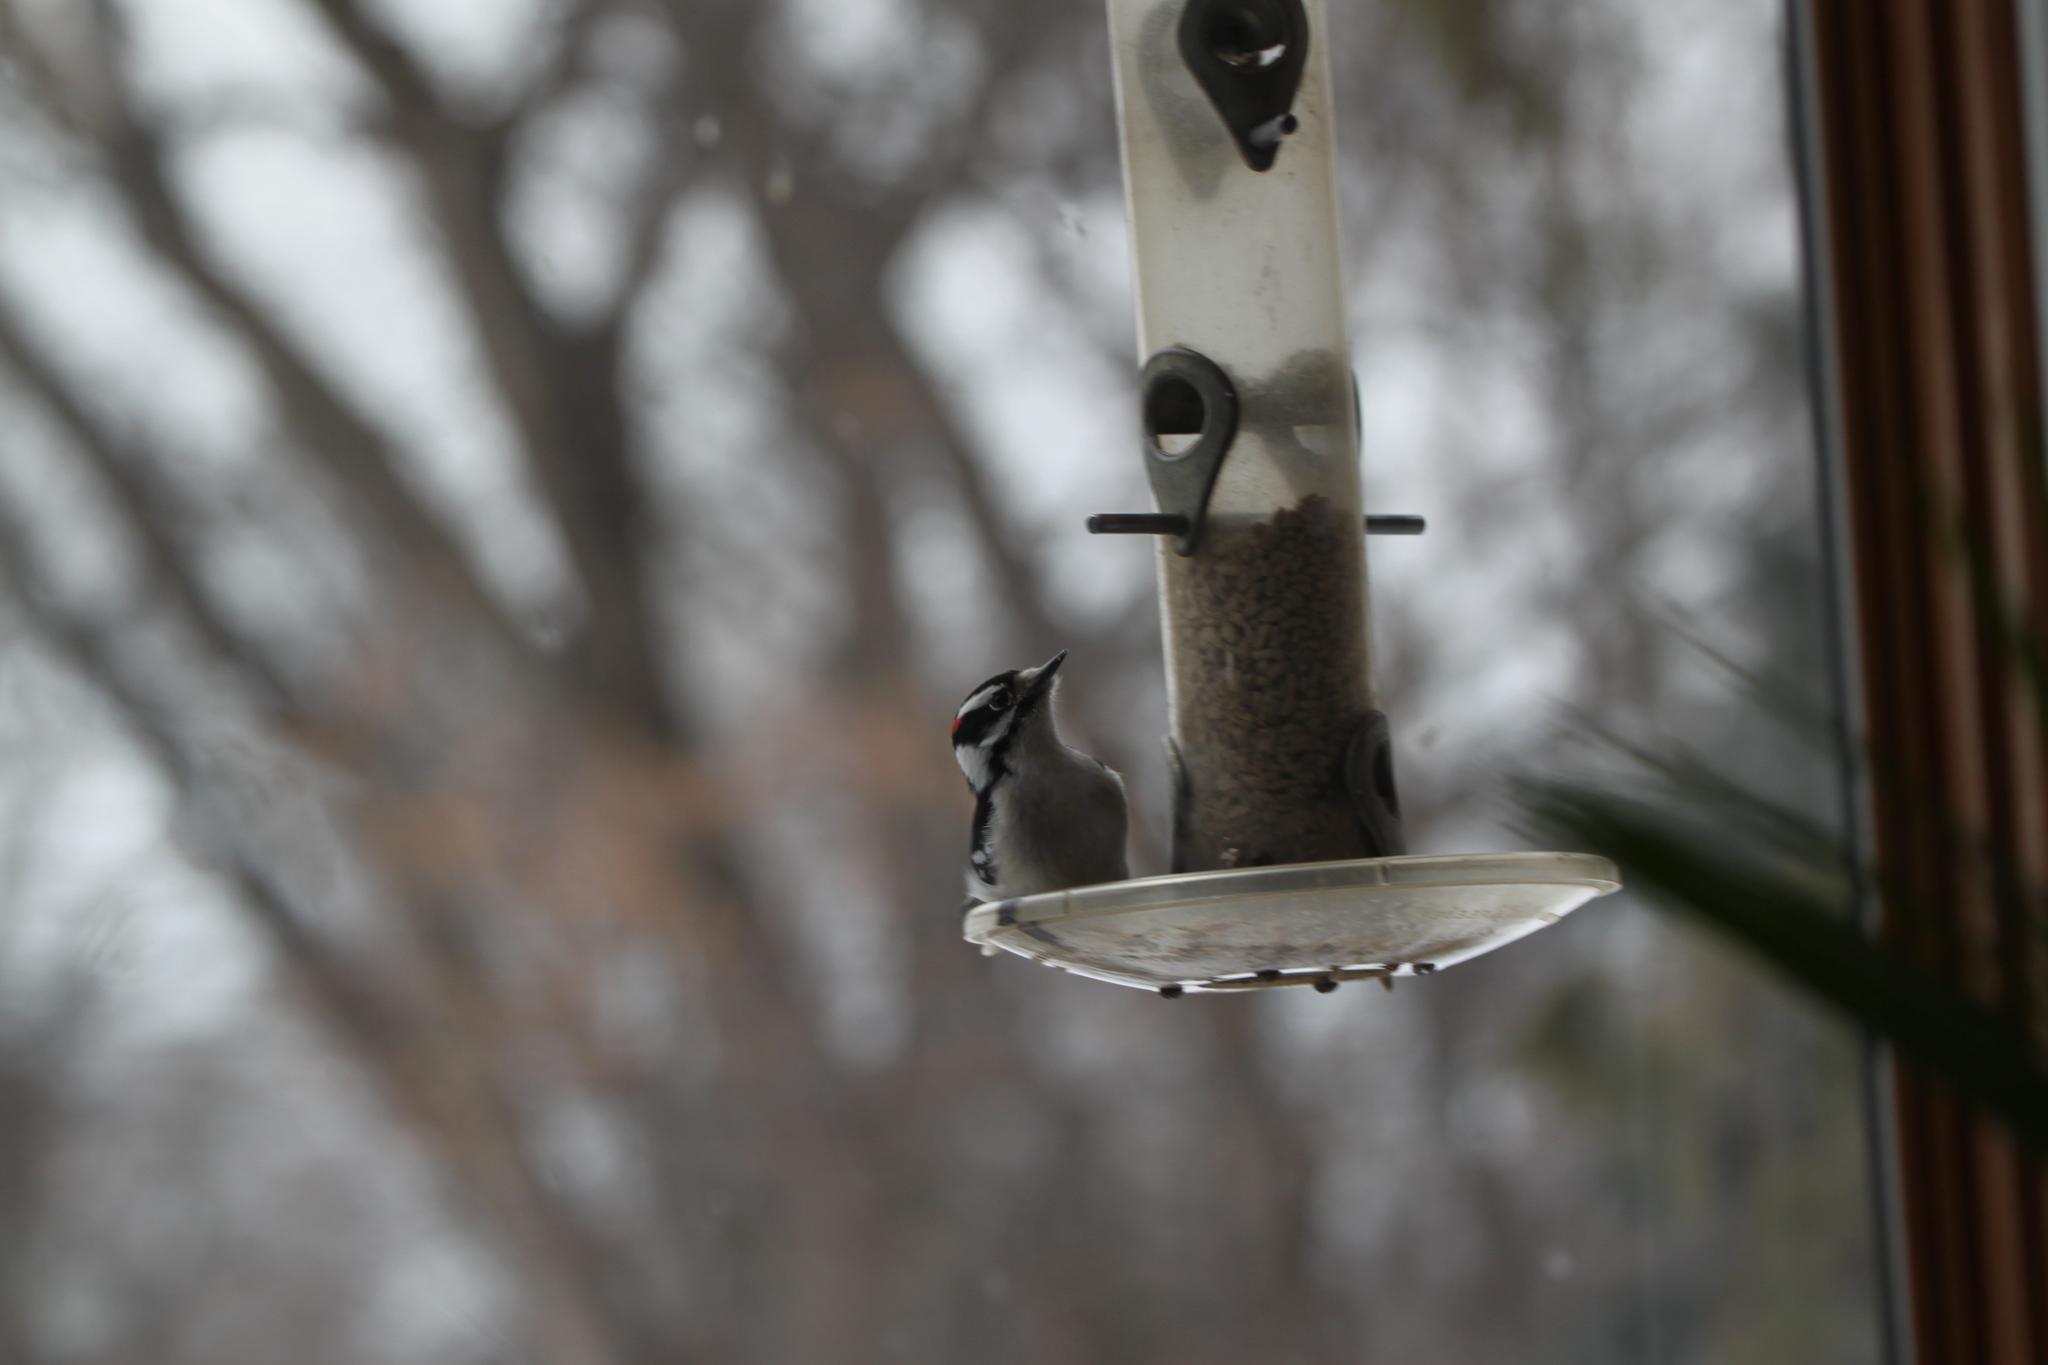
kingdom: Animalia
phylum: Chordata
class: Aves
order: Piciformes
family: Picidae
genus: Dryobates
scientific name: Dryobates pubescens
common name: Downy woodpecker
